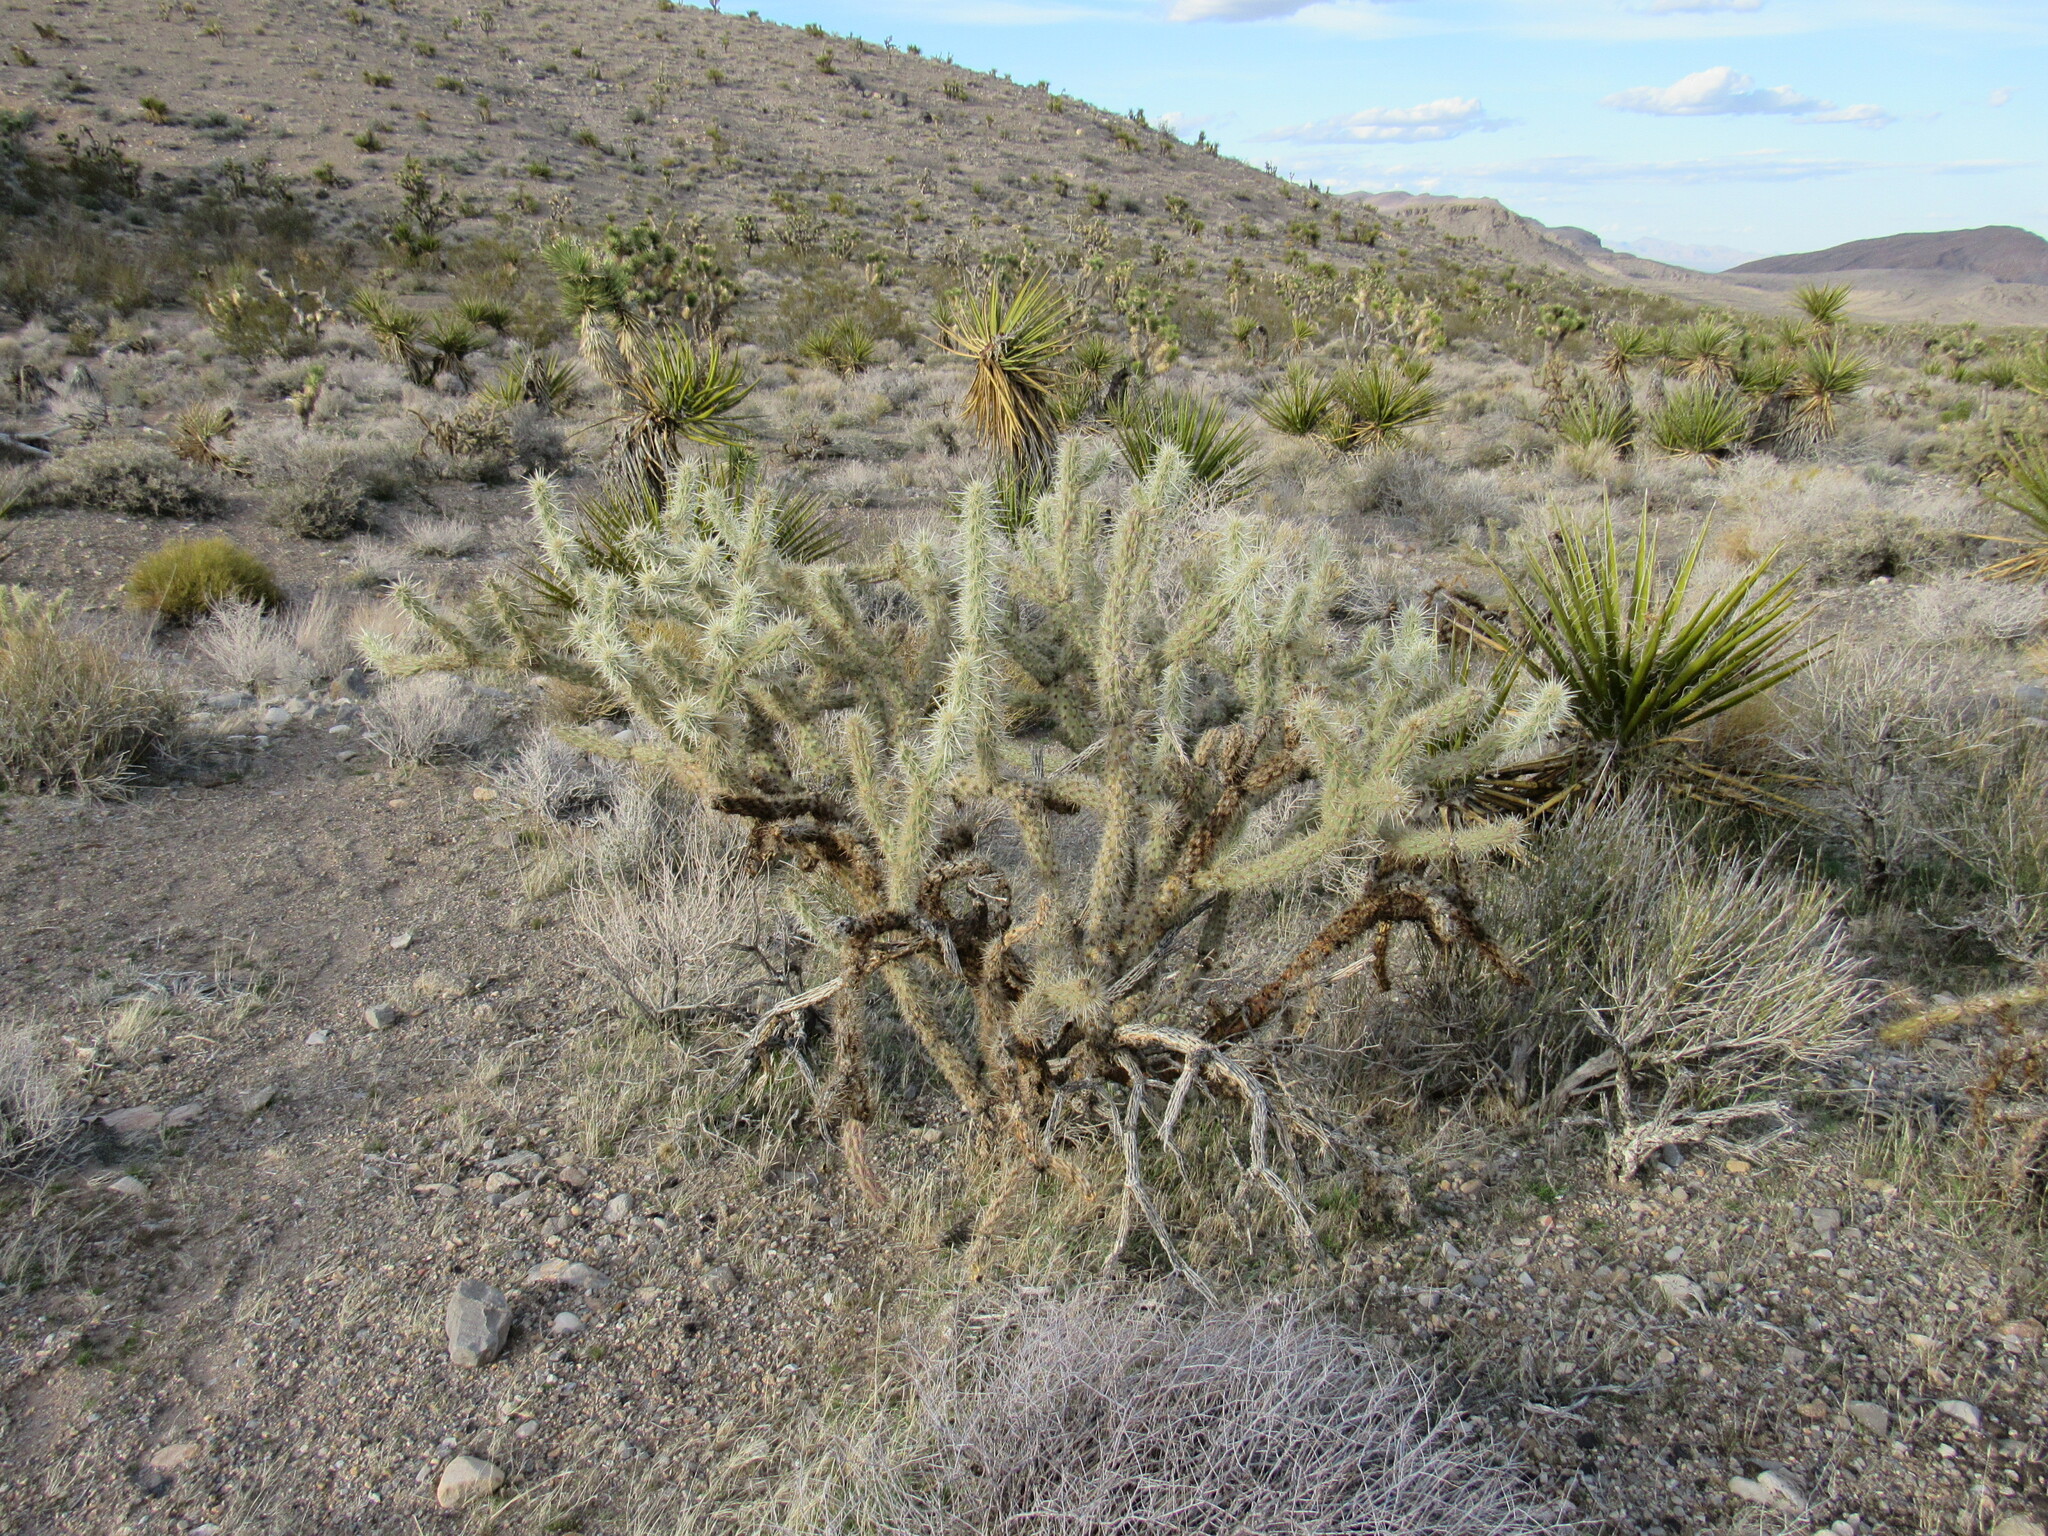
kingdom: Plantae
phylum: Tracheophyta
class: Magnoliopsida
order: Caryophyllales
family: Cactaceae
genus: Cylindropuntia
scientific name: Cylindropuntia acanthocarpa
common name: Buckhorn cholla
